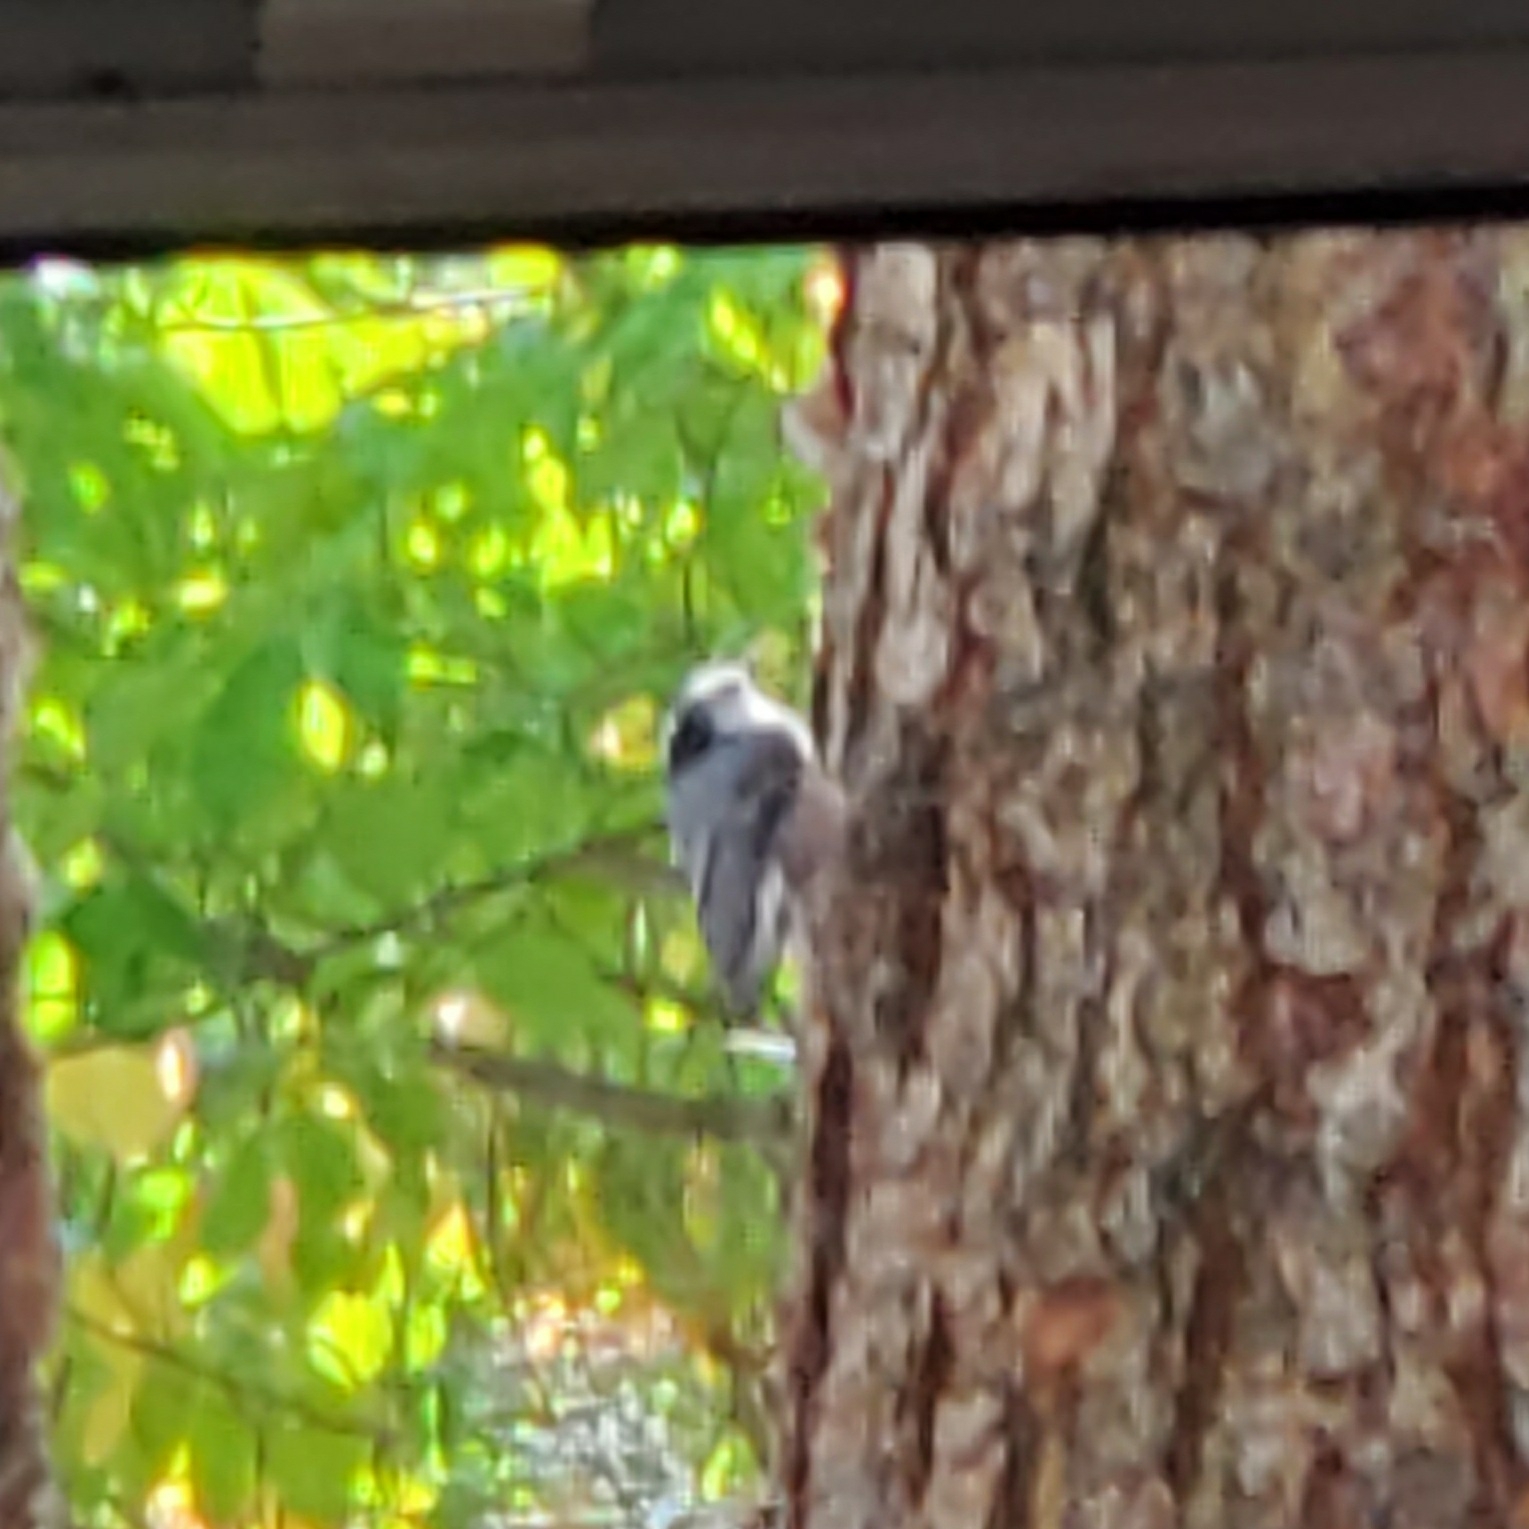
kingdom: Animalia
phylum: Chordata
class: Aves
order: Passeriformes
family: Sittidae
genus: Sitta
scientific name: Sitta carolinensis
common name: White-breasted nuthatch
